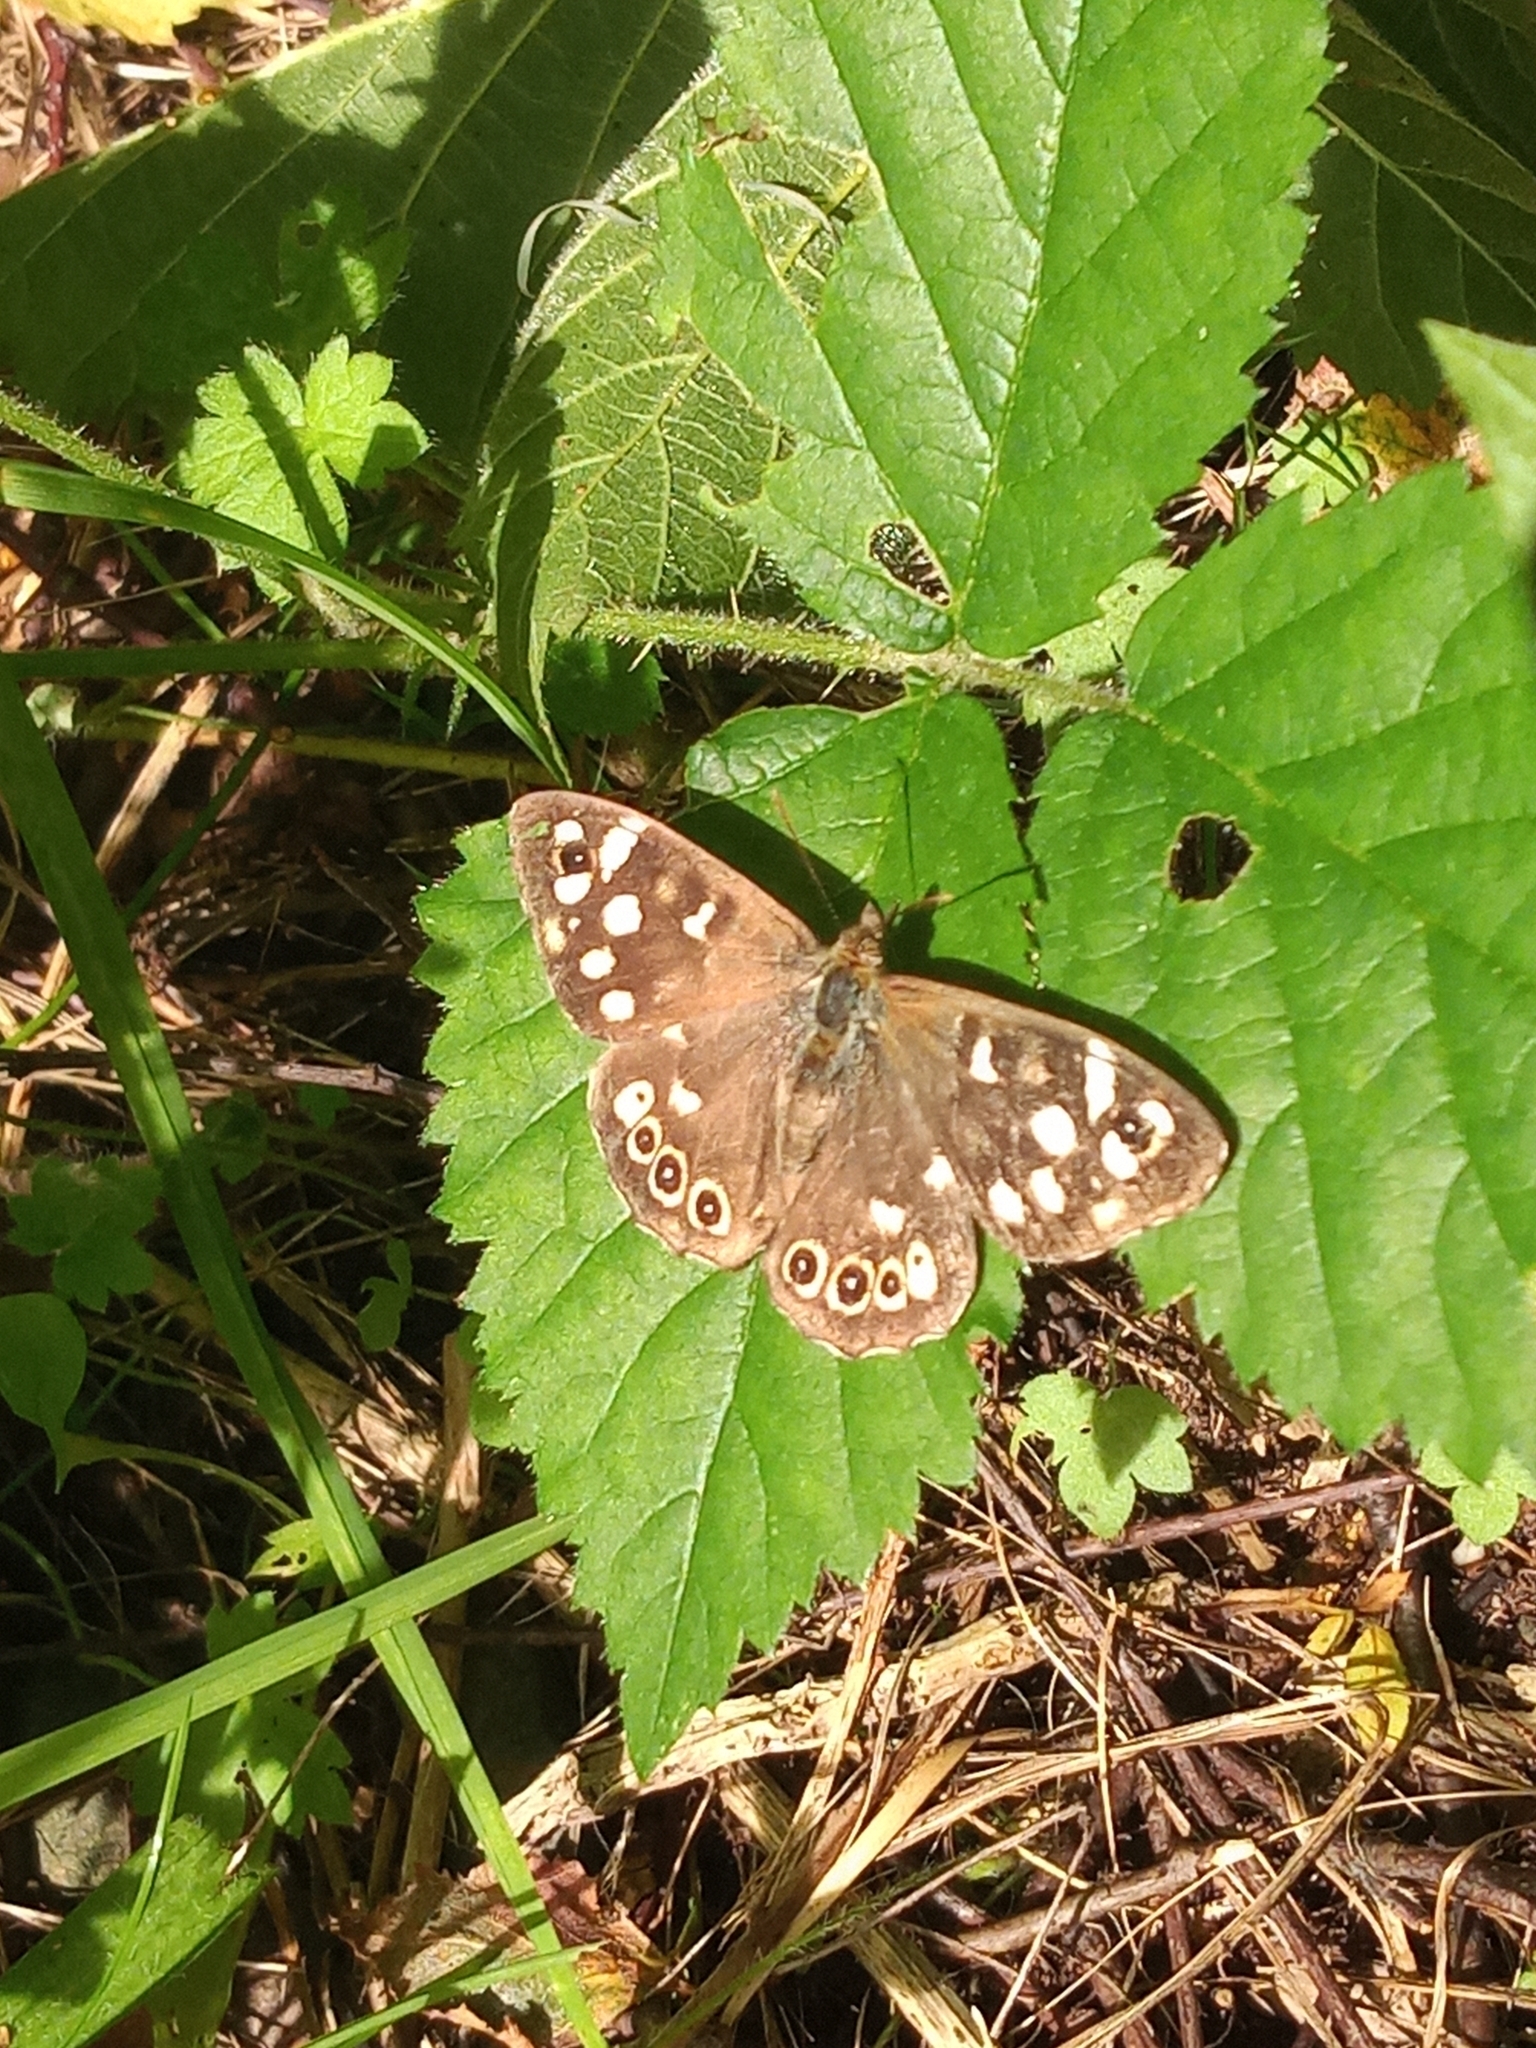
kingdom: Animalia
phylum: Arthropoda
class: Insecta
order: Lepidoptera
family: Nymphalidae
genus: Pararge
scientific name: Pararge aegeria
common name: Speckled wood
